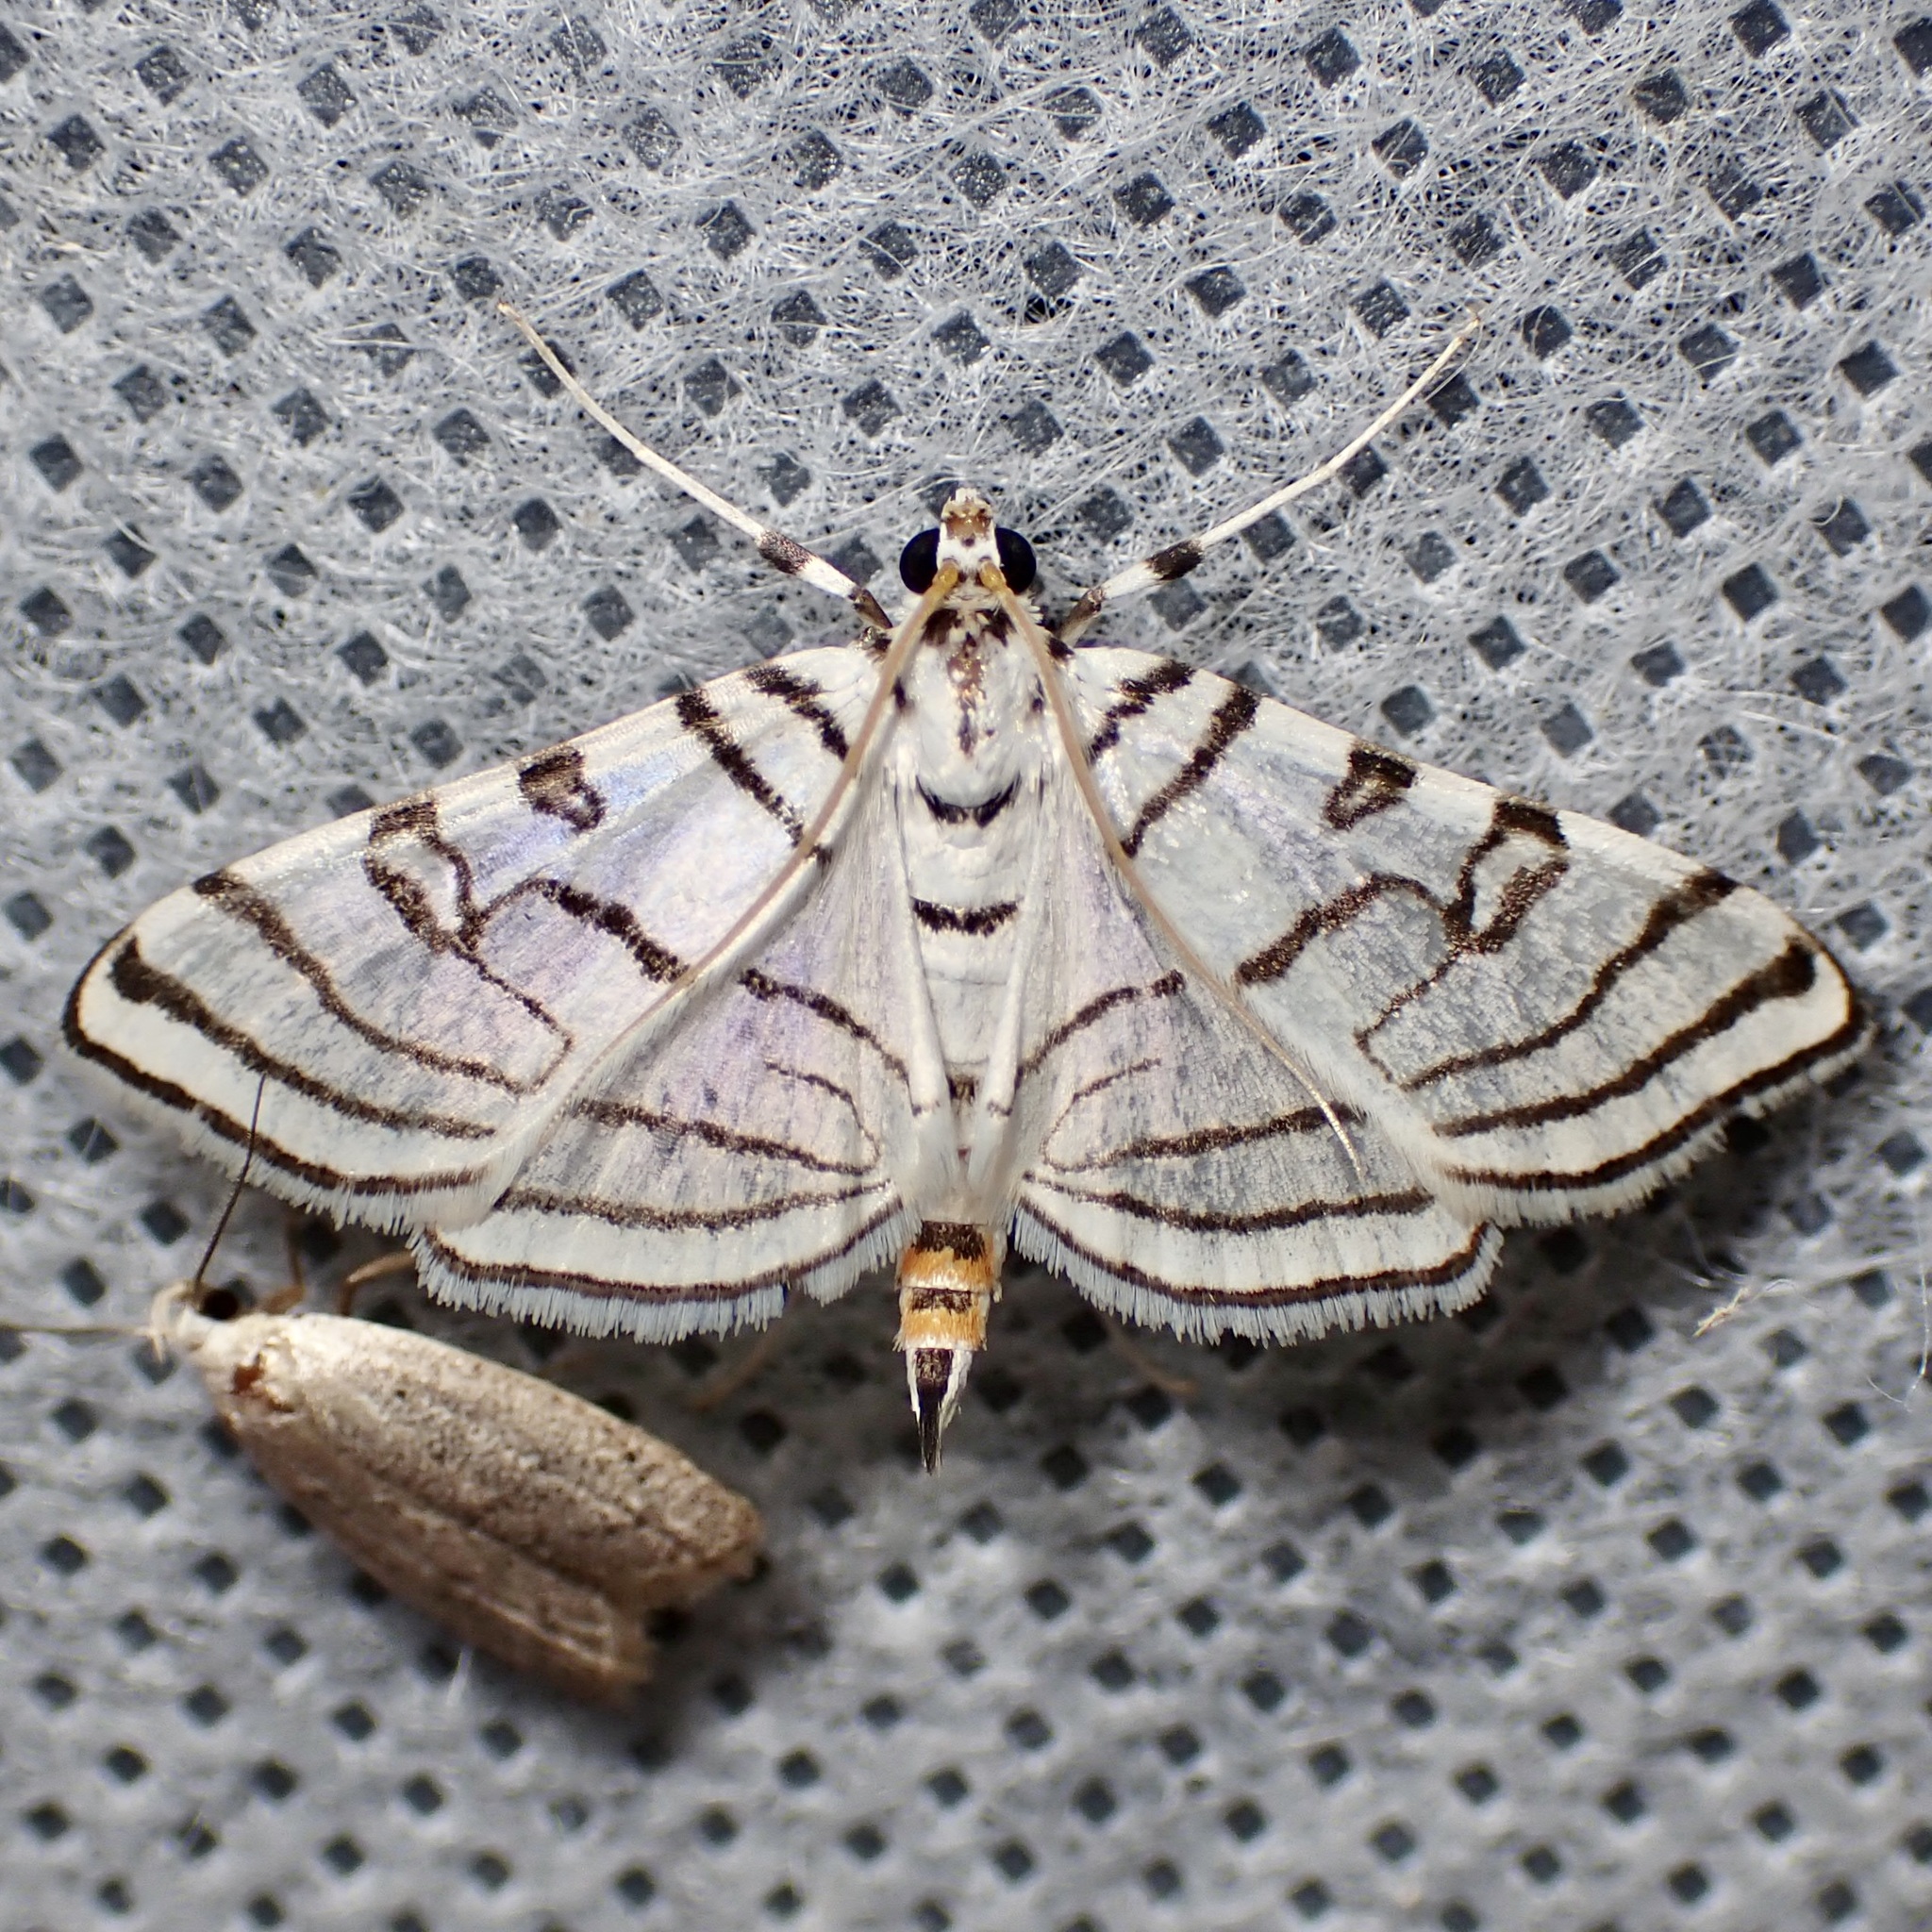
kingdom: Animalia
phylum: Arthropoda
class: Insecta
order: Lepidoptera
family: Crambidae
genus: Conchylodes
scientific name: Conchylodes concinnalis
